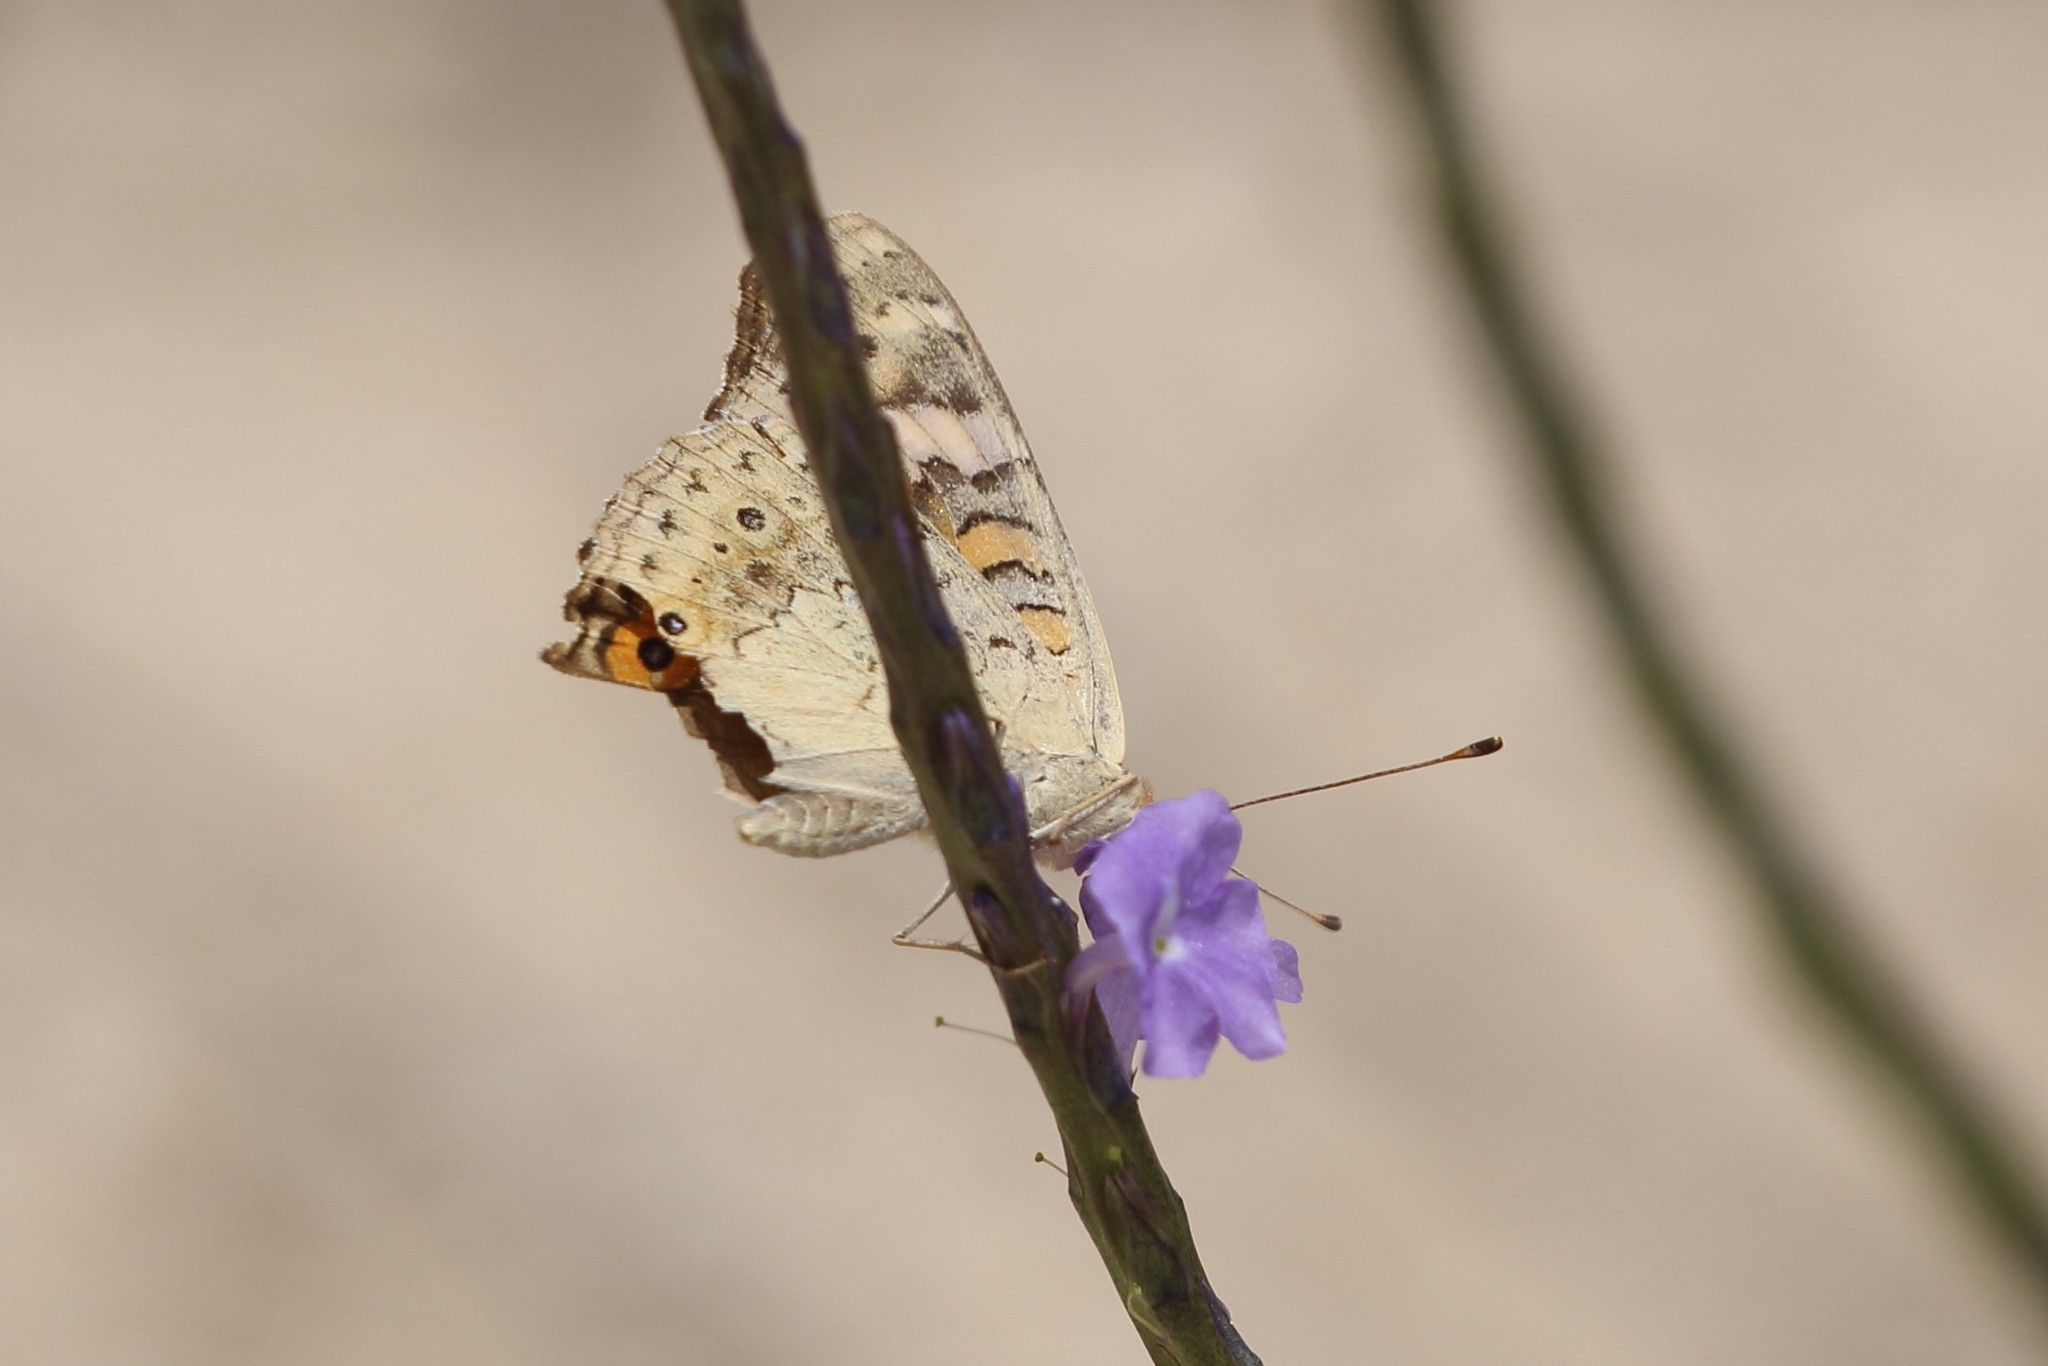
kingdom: Animalia
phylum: Arthropoda
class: Insecta
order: Lepidoptera
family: Nymphalidae
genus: Junonia
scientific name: Junonia villida
